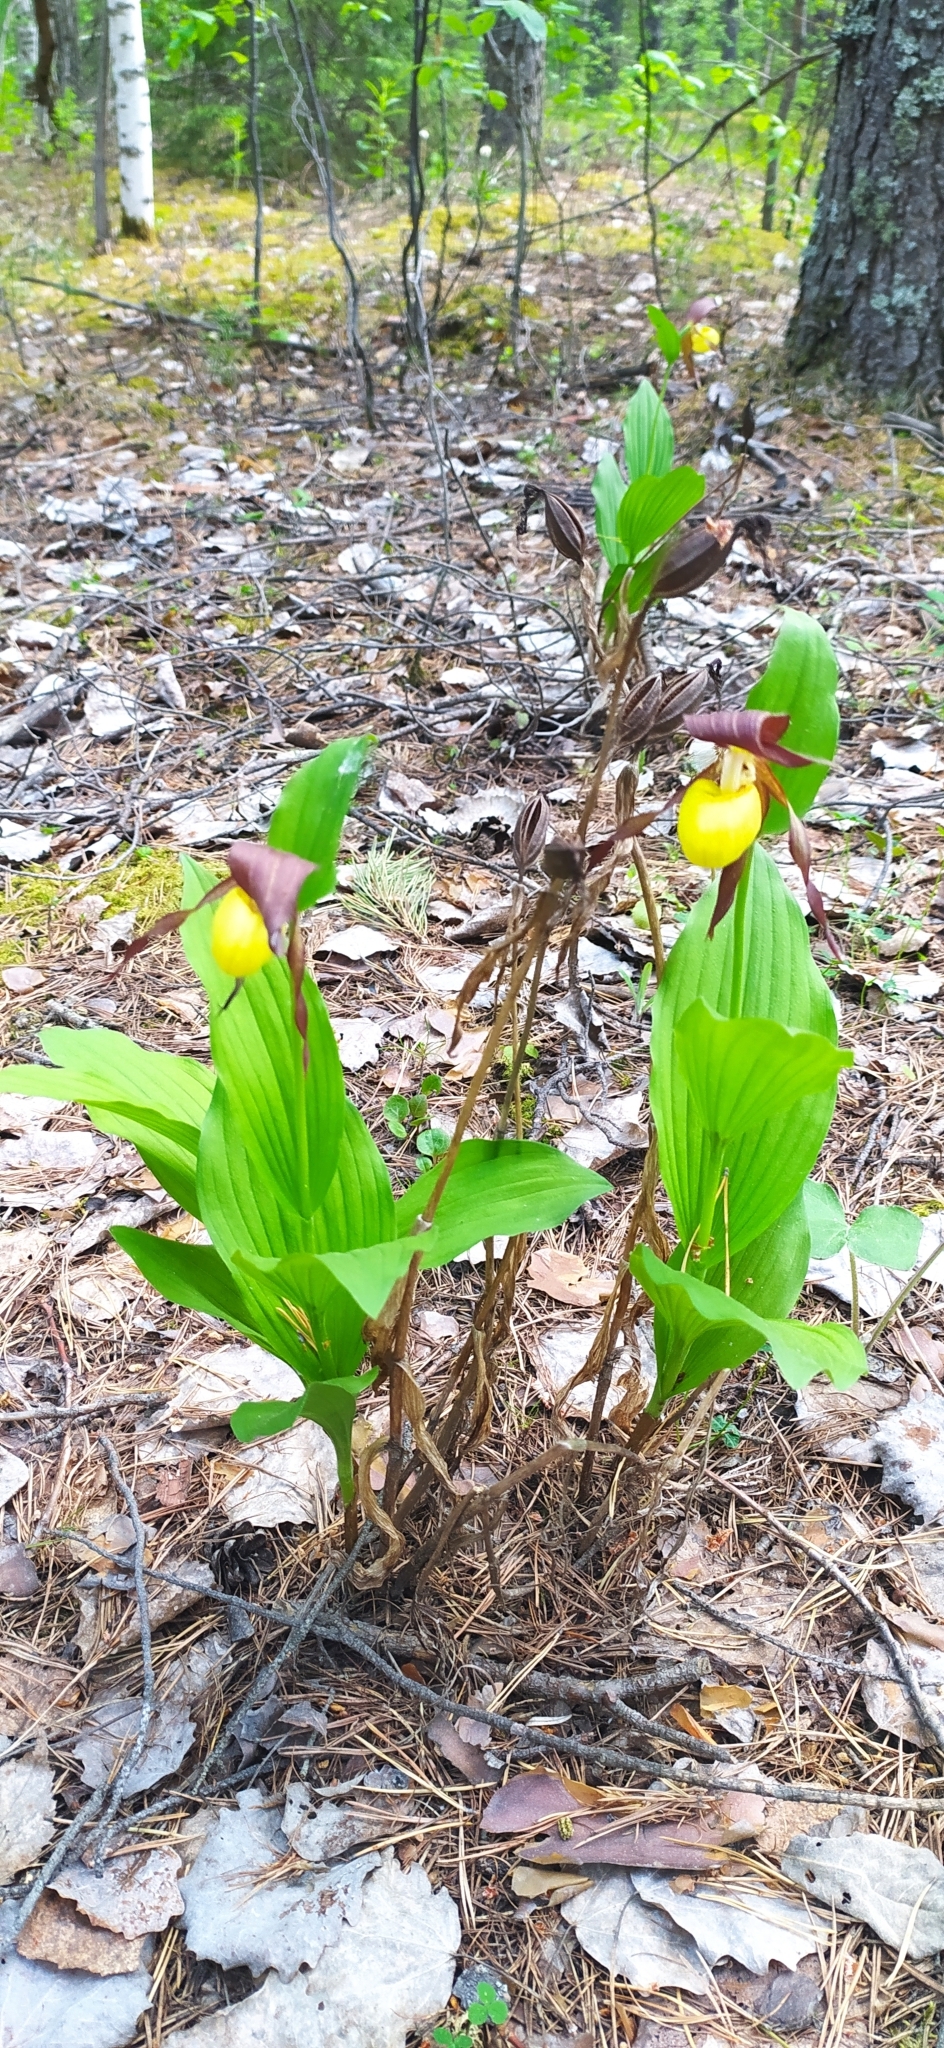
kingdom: Plantae
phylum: Tracheophyta
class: Liliopsida
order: Asparagales
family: Orchidaceae
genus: Cypripedium
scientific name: Cypripedium calceolus
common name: Lady's-slipper
